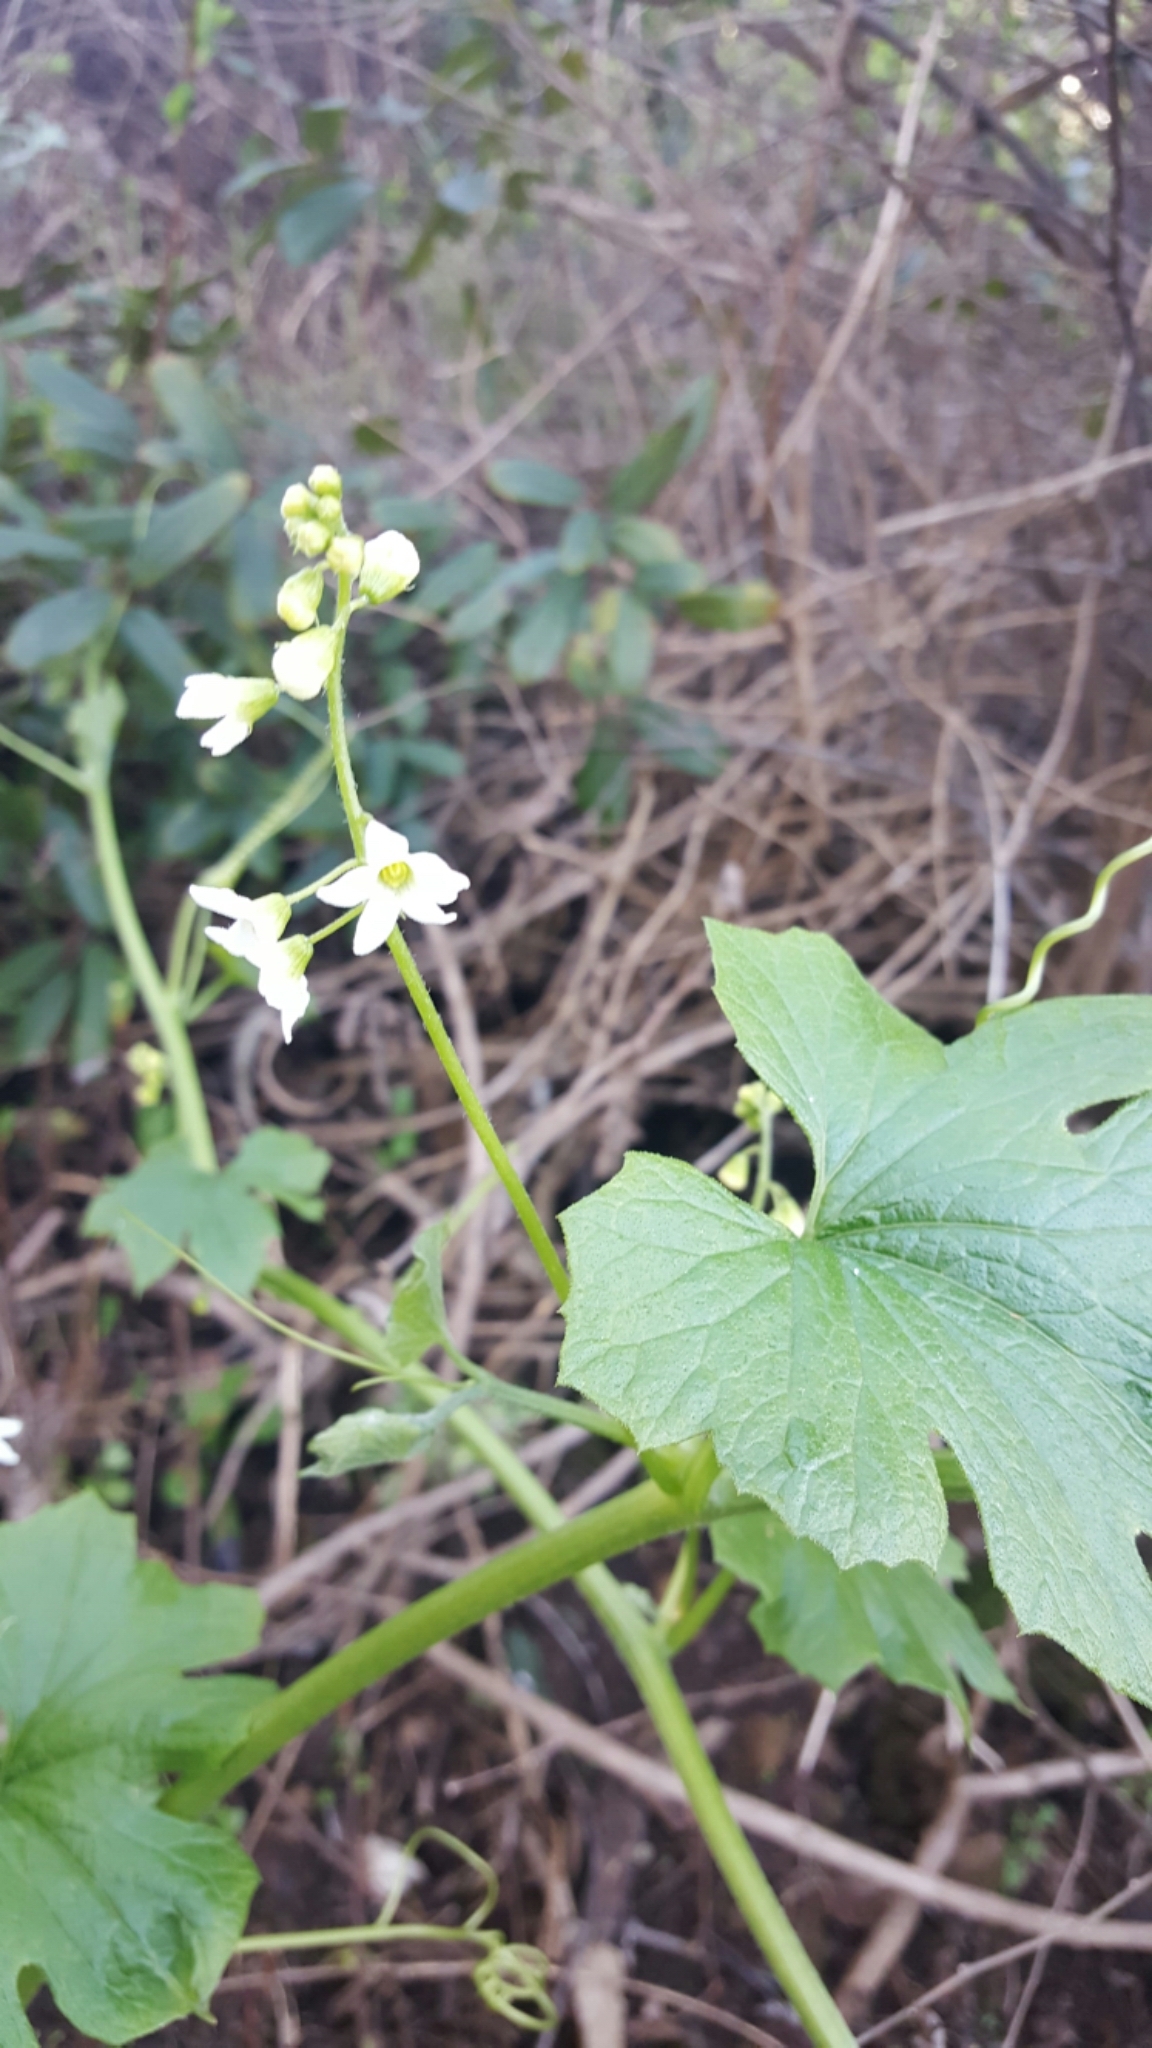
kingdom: Plantae
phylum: Tracheophyta
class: Magnoliopsida
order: Cucurbitales
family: Cucurbitaceae
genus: Marah
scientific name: Marah oregana
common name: Coastal manroot
